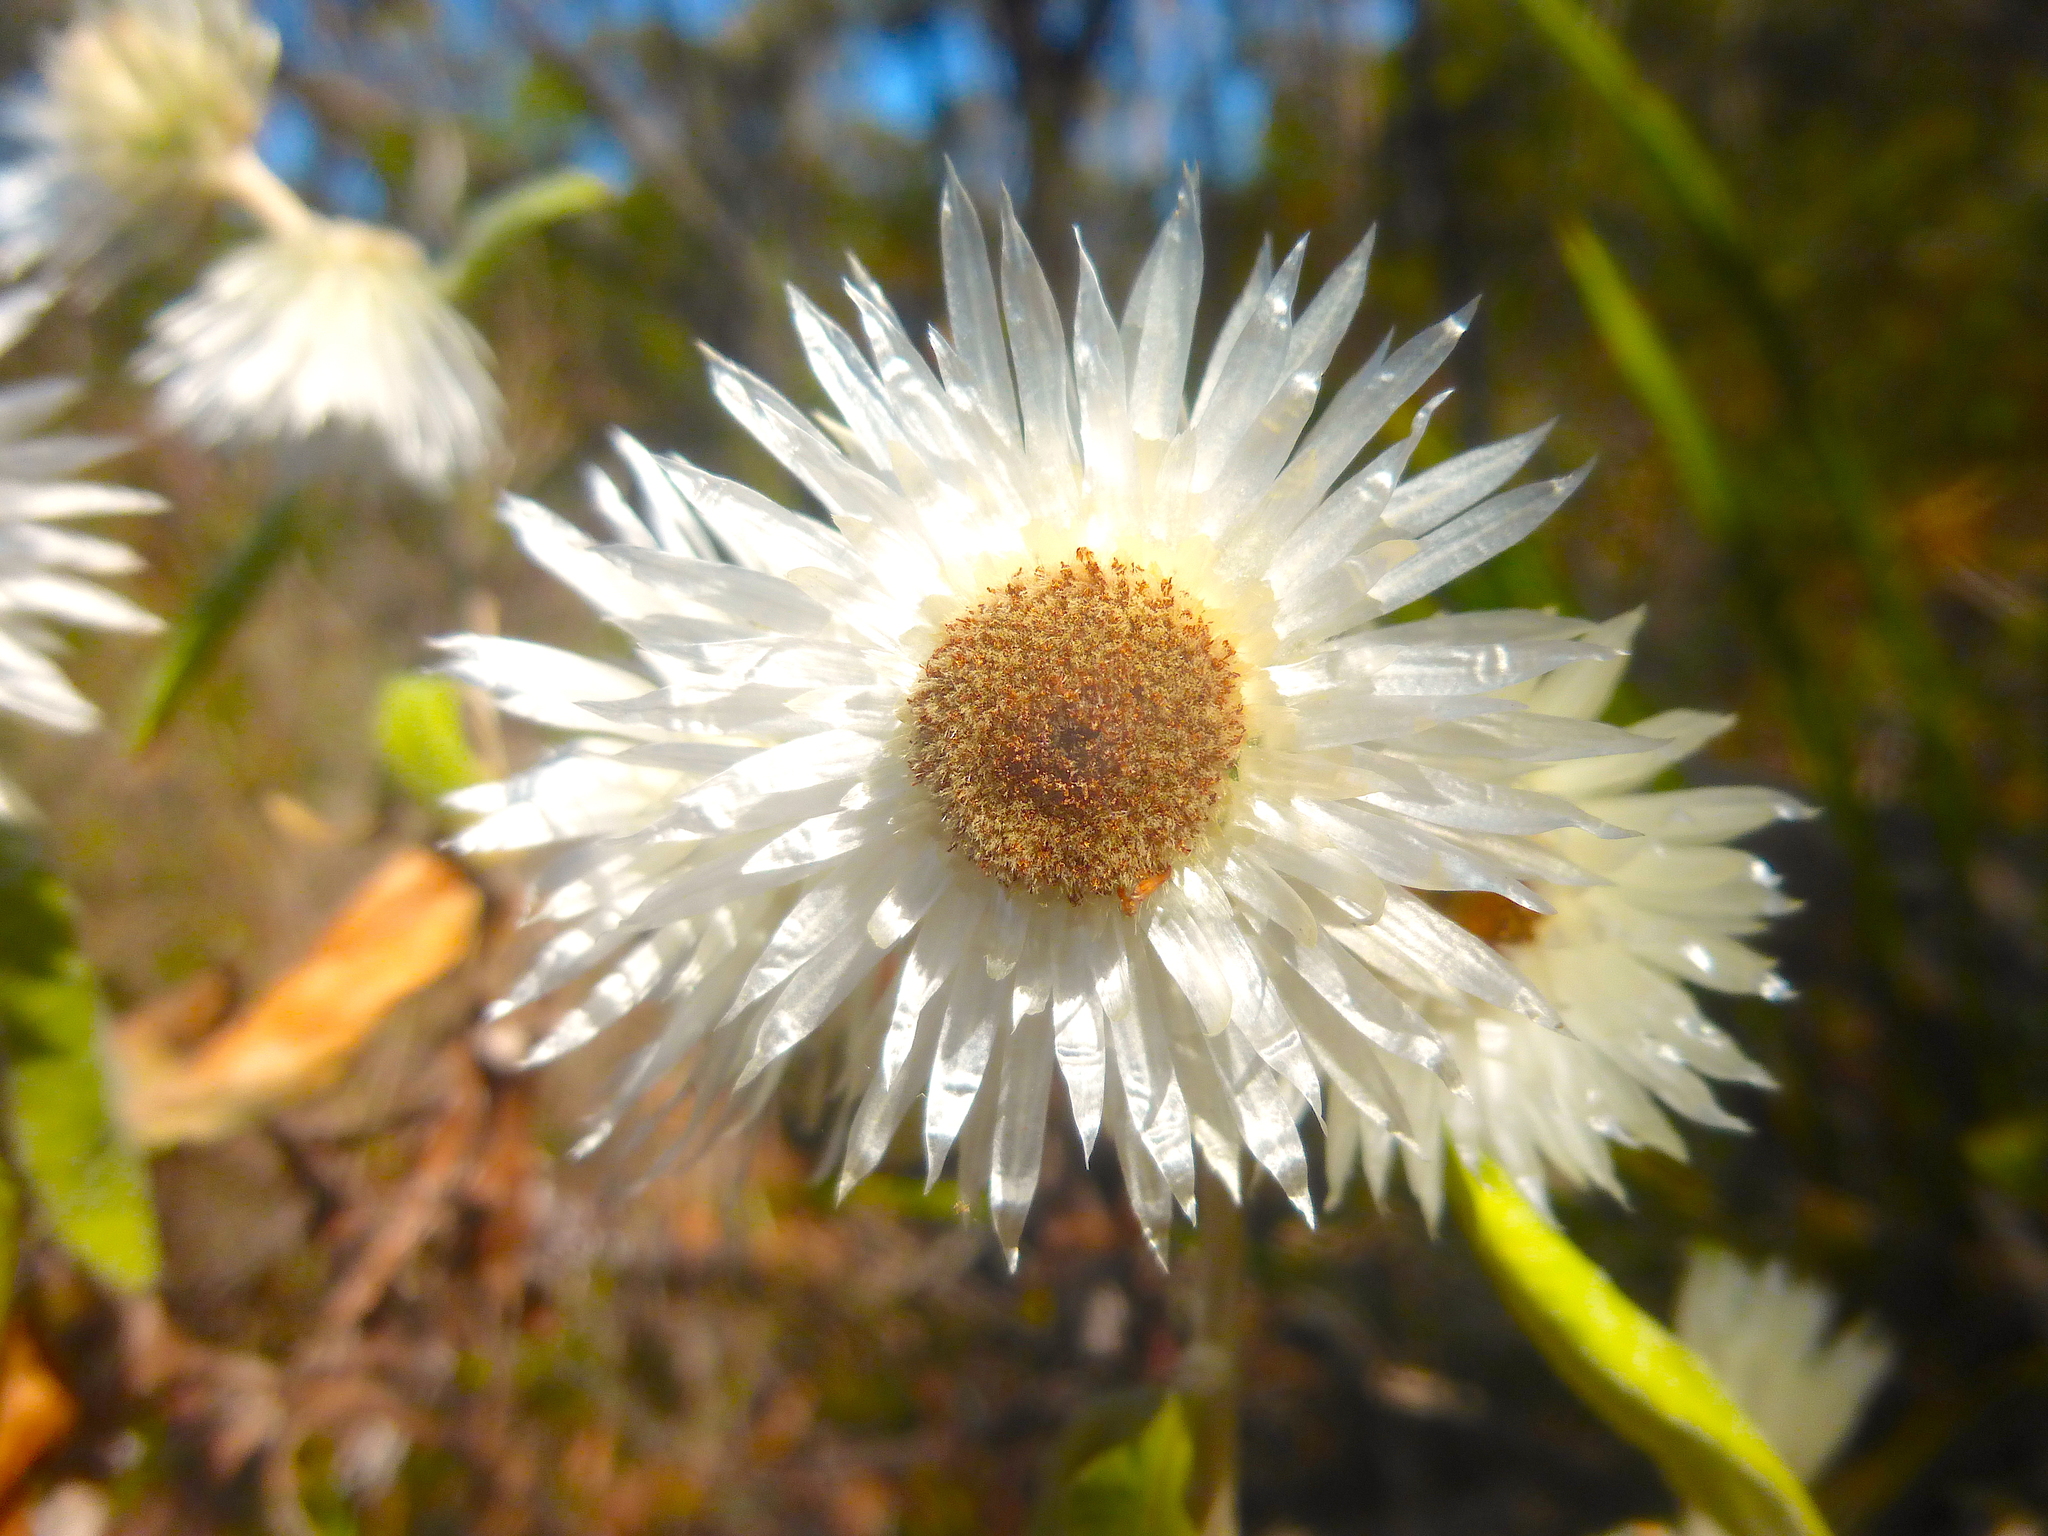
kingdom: Plantae
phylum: Tracheophyta
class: Magnoliopsida
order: Asterales
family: Asteraceae
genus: Leucozoma
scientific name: Leucozoma elatum
